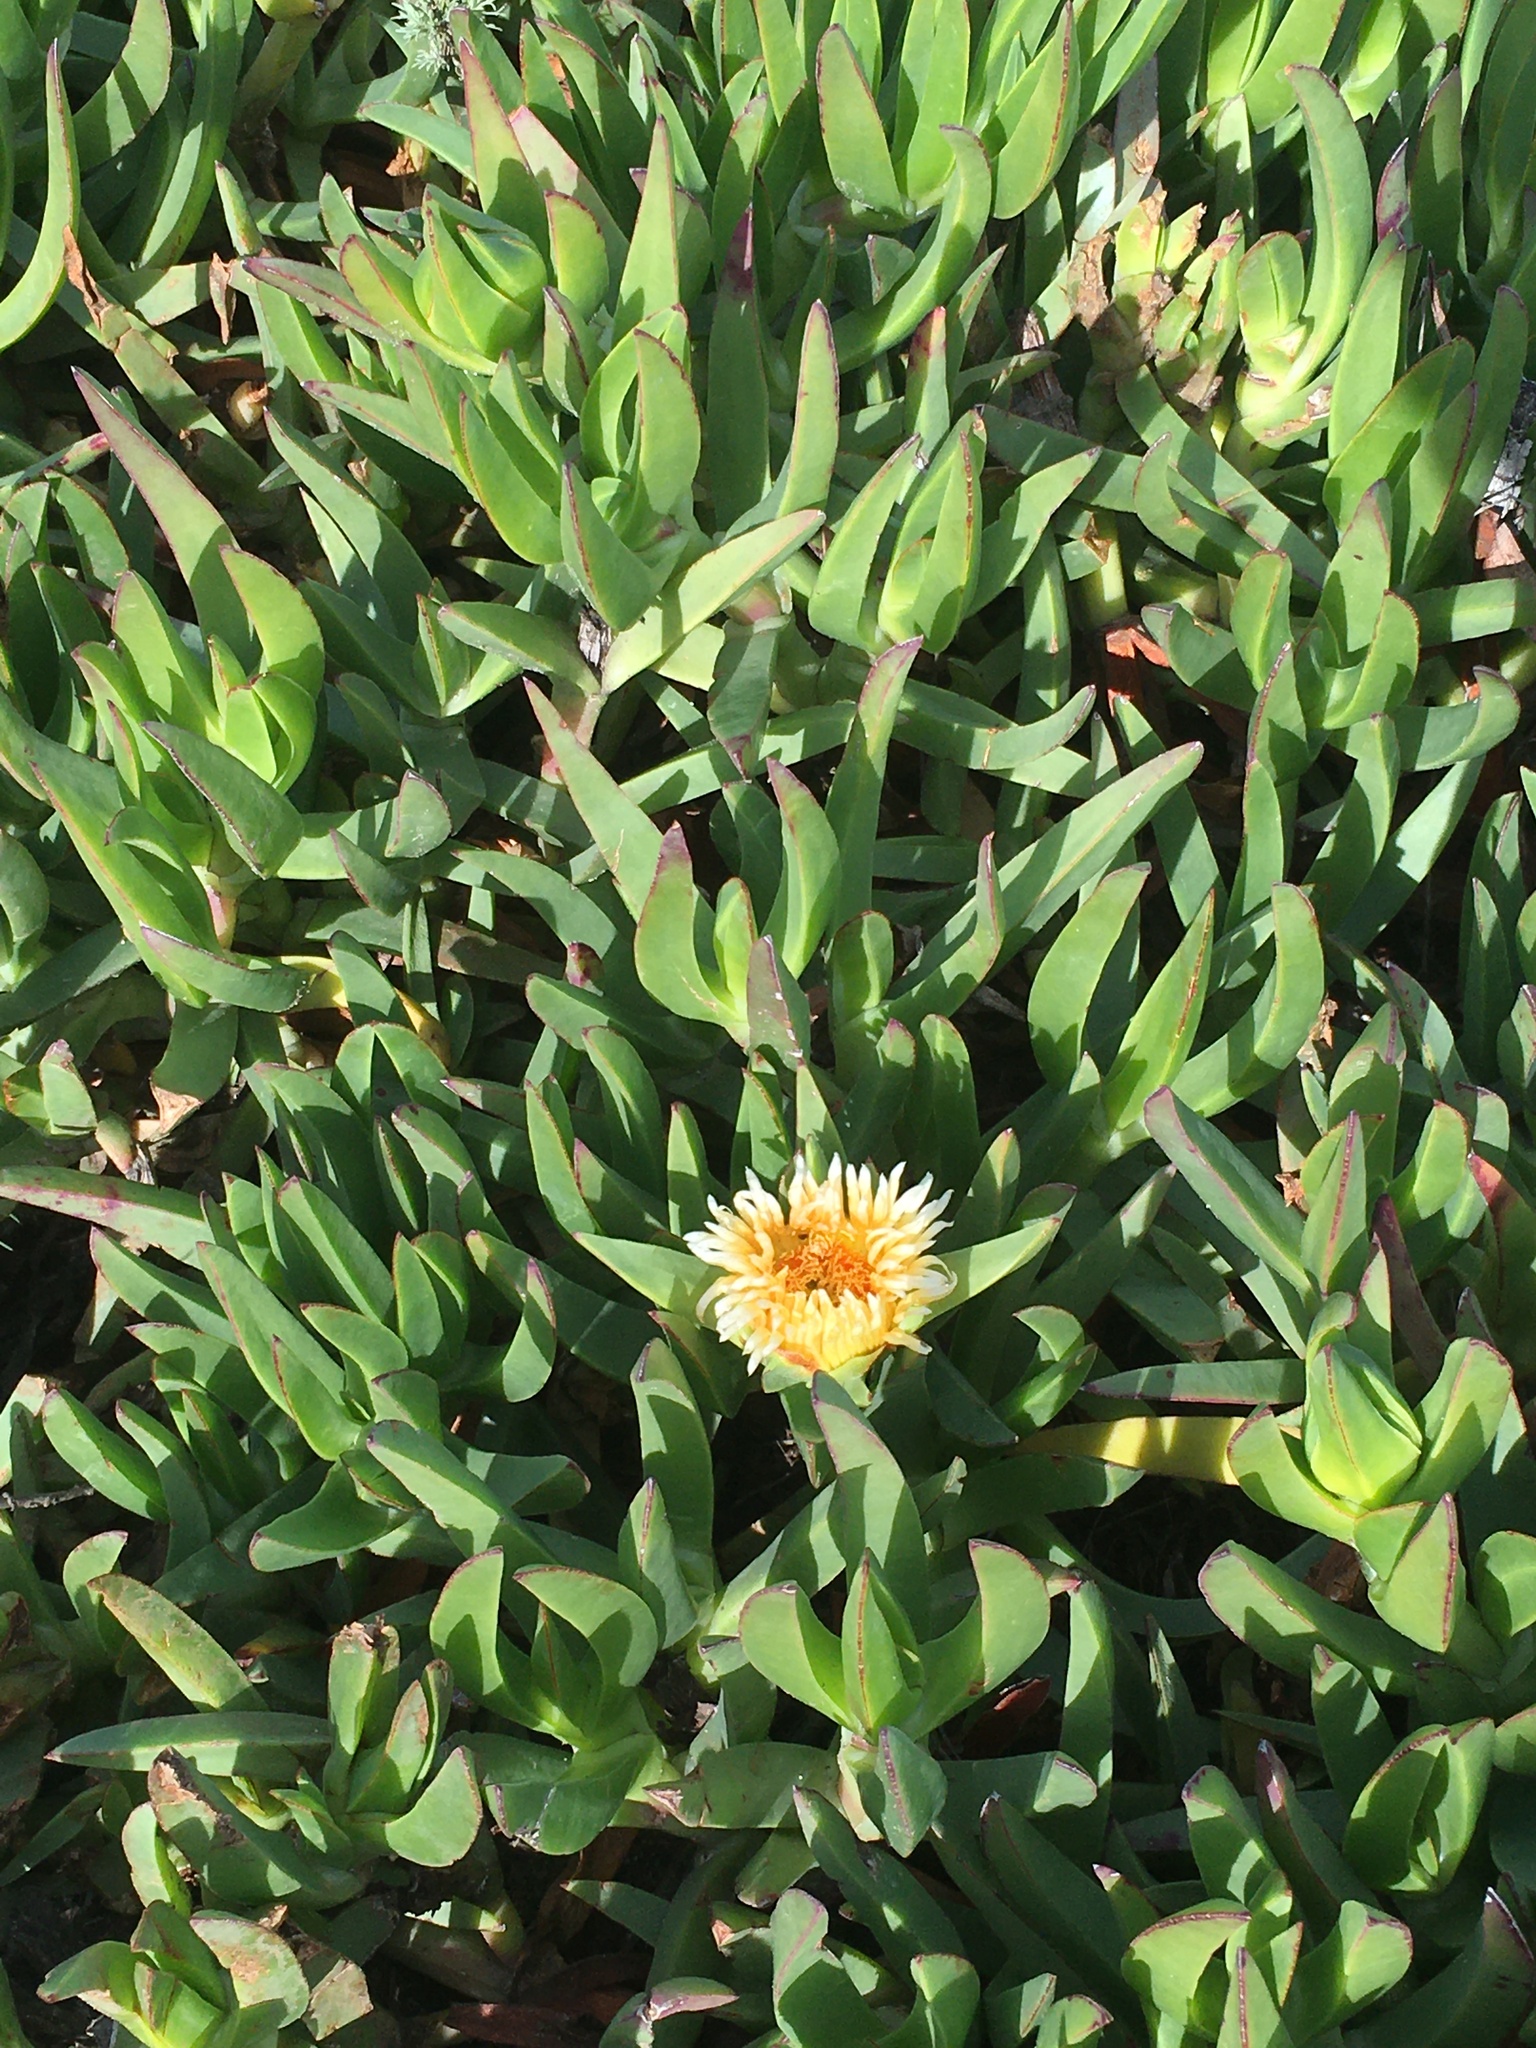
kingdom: Plantae
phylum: Tracheophyta
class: Magnoliopsida
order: Caryophyllales
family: Aizoaceae
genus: Carpobrotus
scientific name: Carpobrotus edulis
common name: Hottentot-fig
